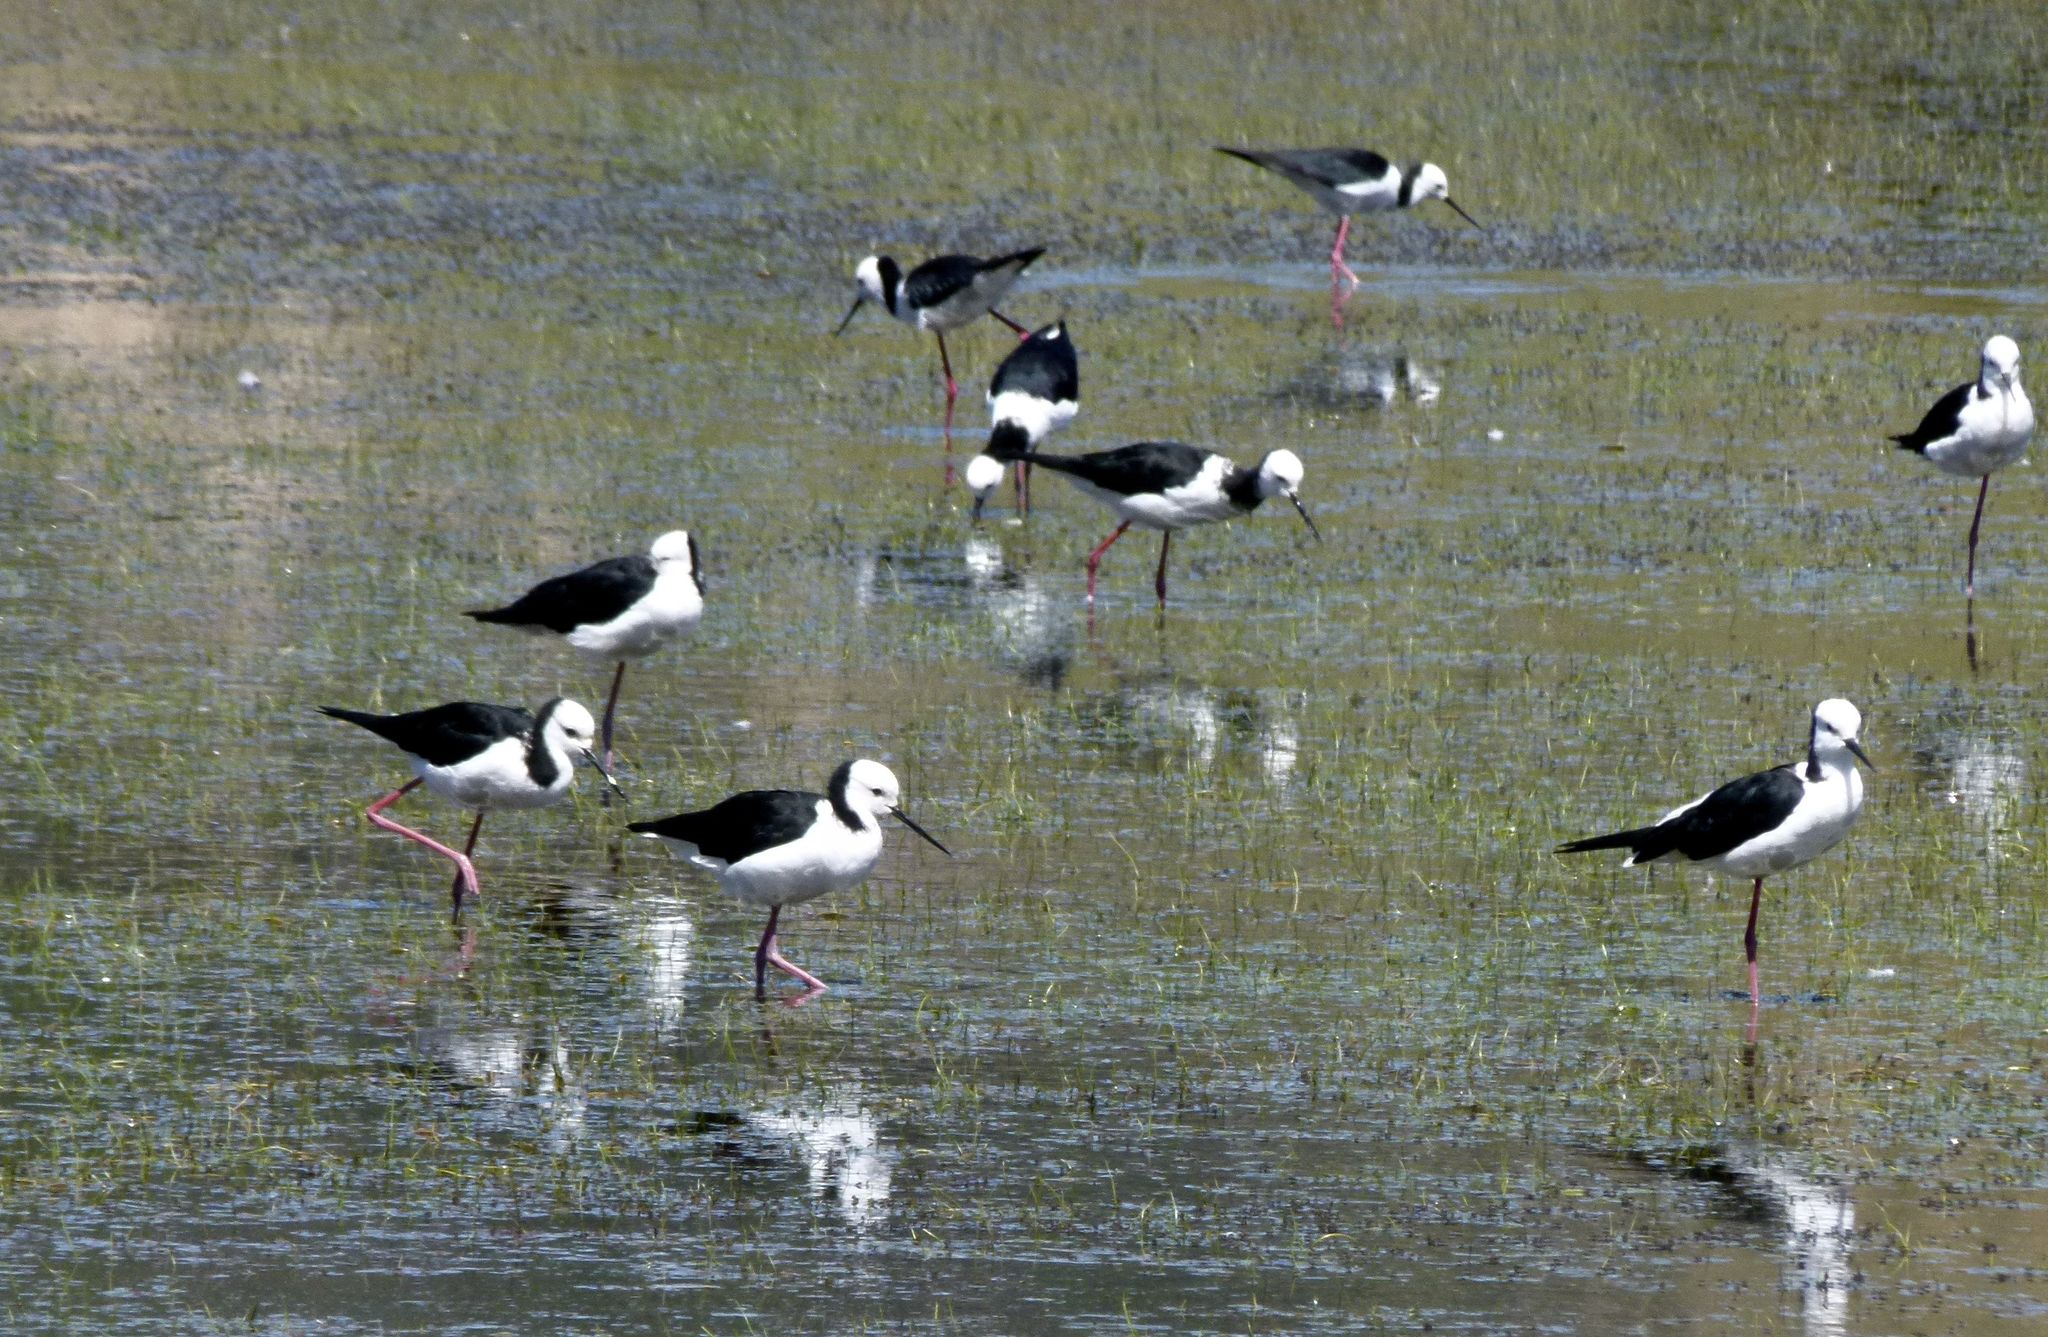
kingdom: Animalia
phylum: Chordata
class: Aves
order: Charadriiformes
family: Recurvirostridae
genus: Himantopus
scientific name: Himantopus leucocephalus
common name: White-headed stilt
